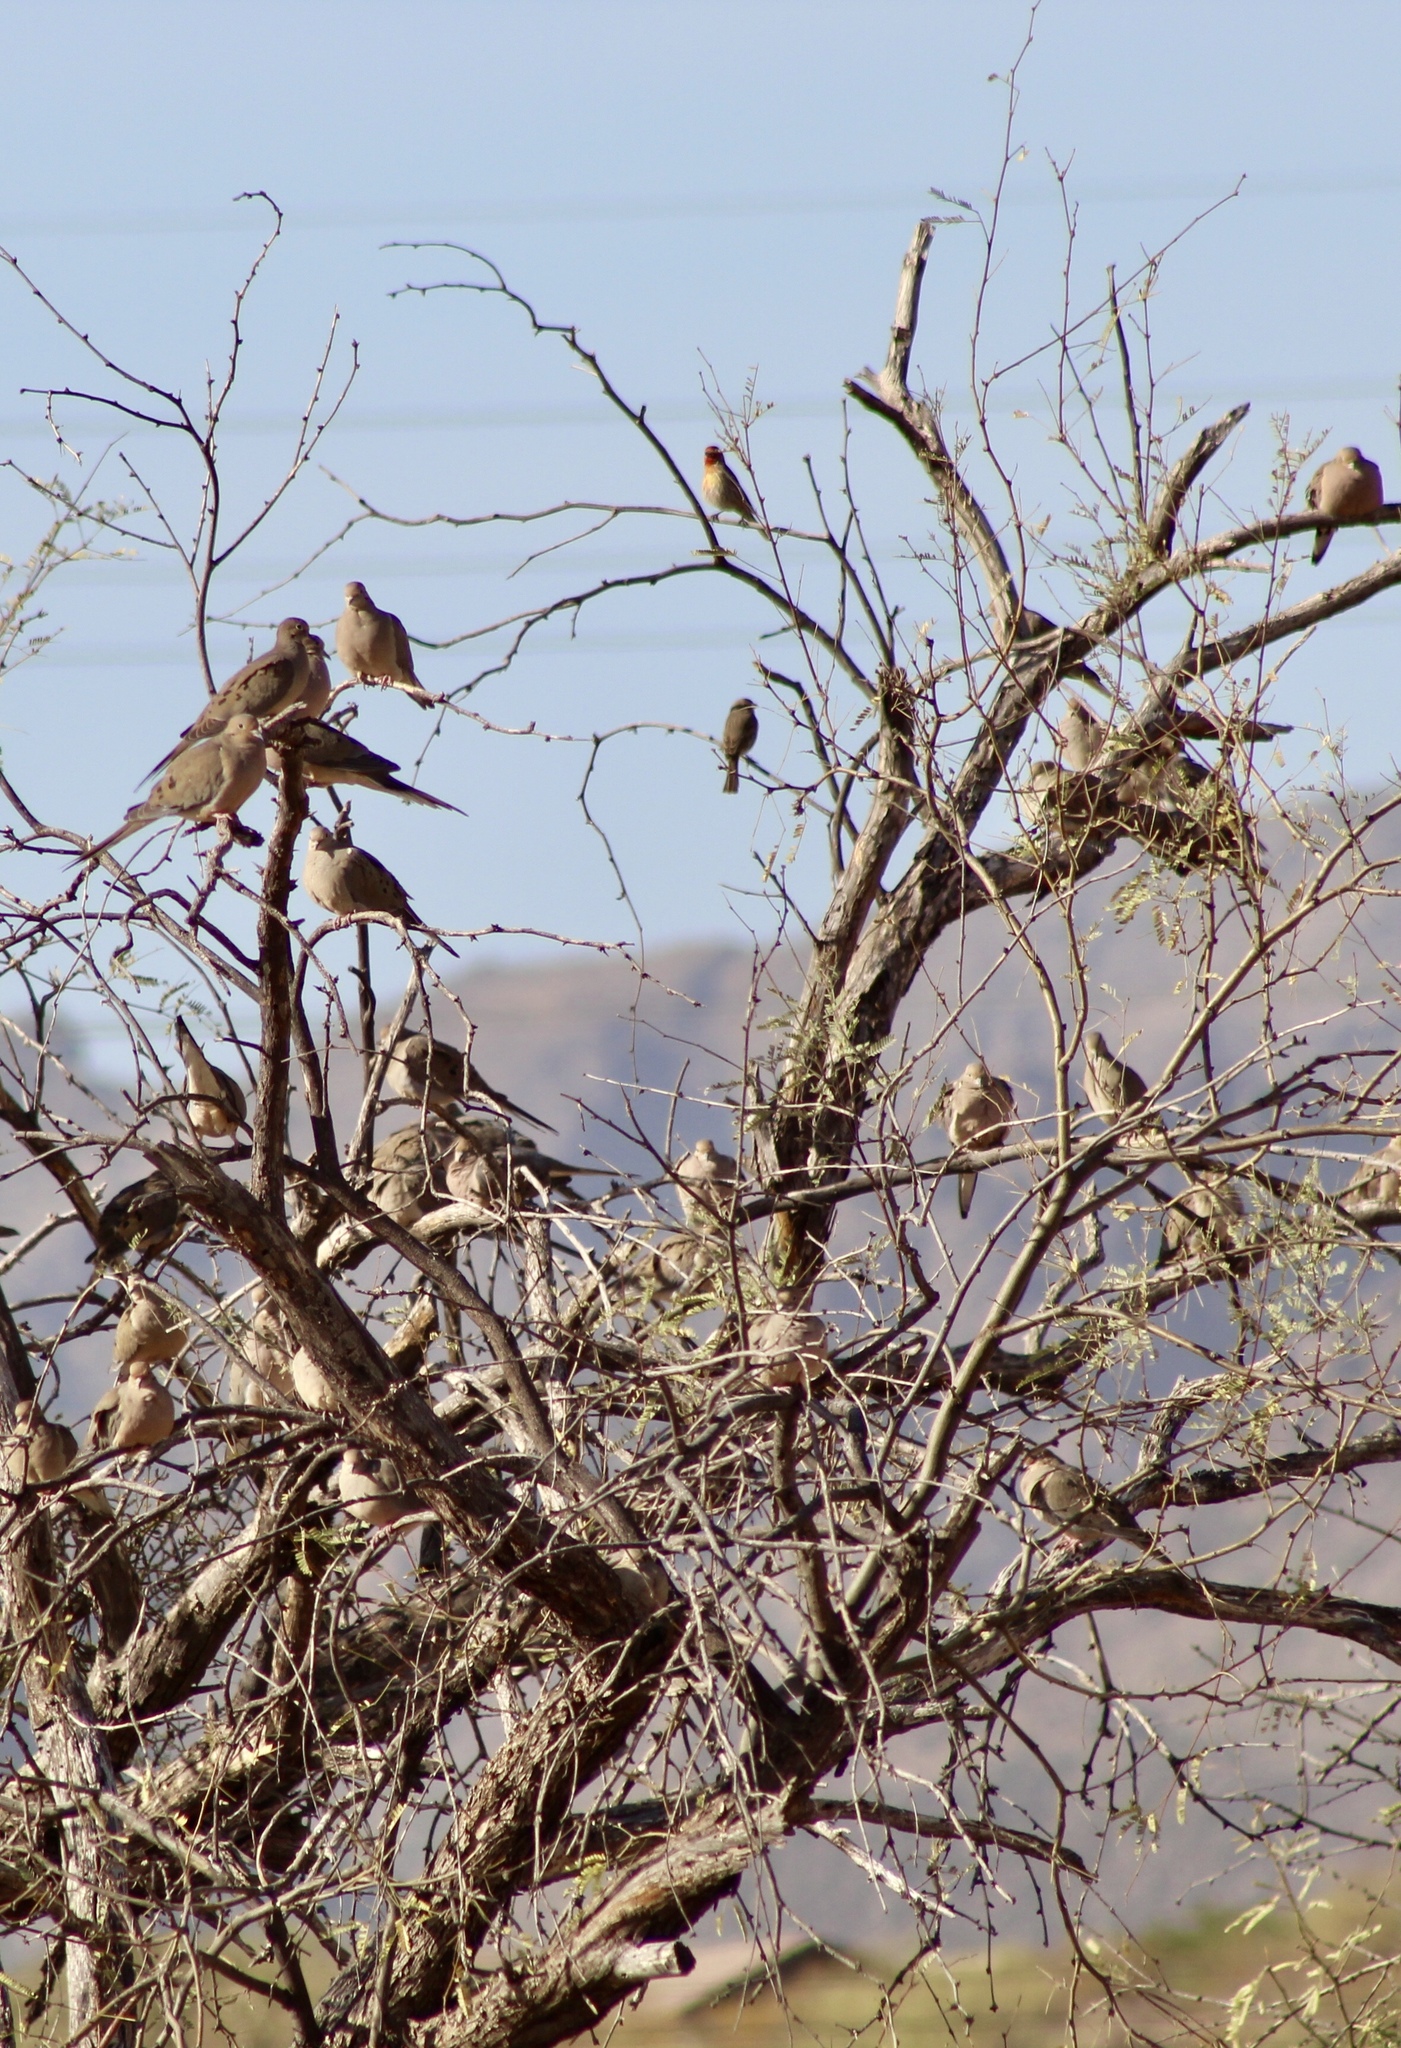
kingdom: Animalia
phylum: Chordata
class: Aves
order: Columbiformes
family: Columbidae
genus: Zenaida
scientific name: Zenaida macroura
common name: Mourning dove
